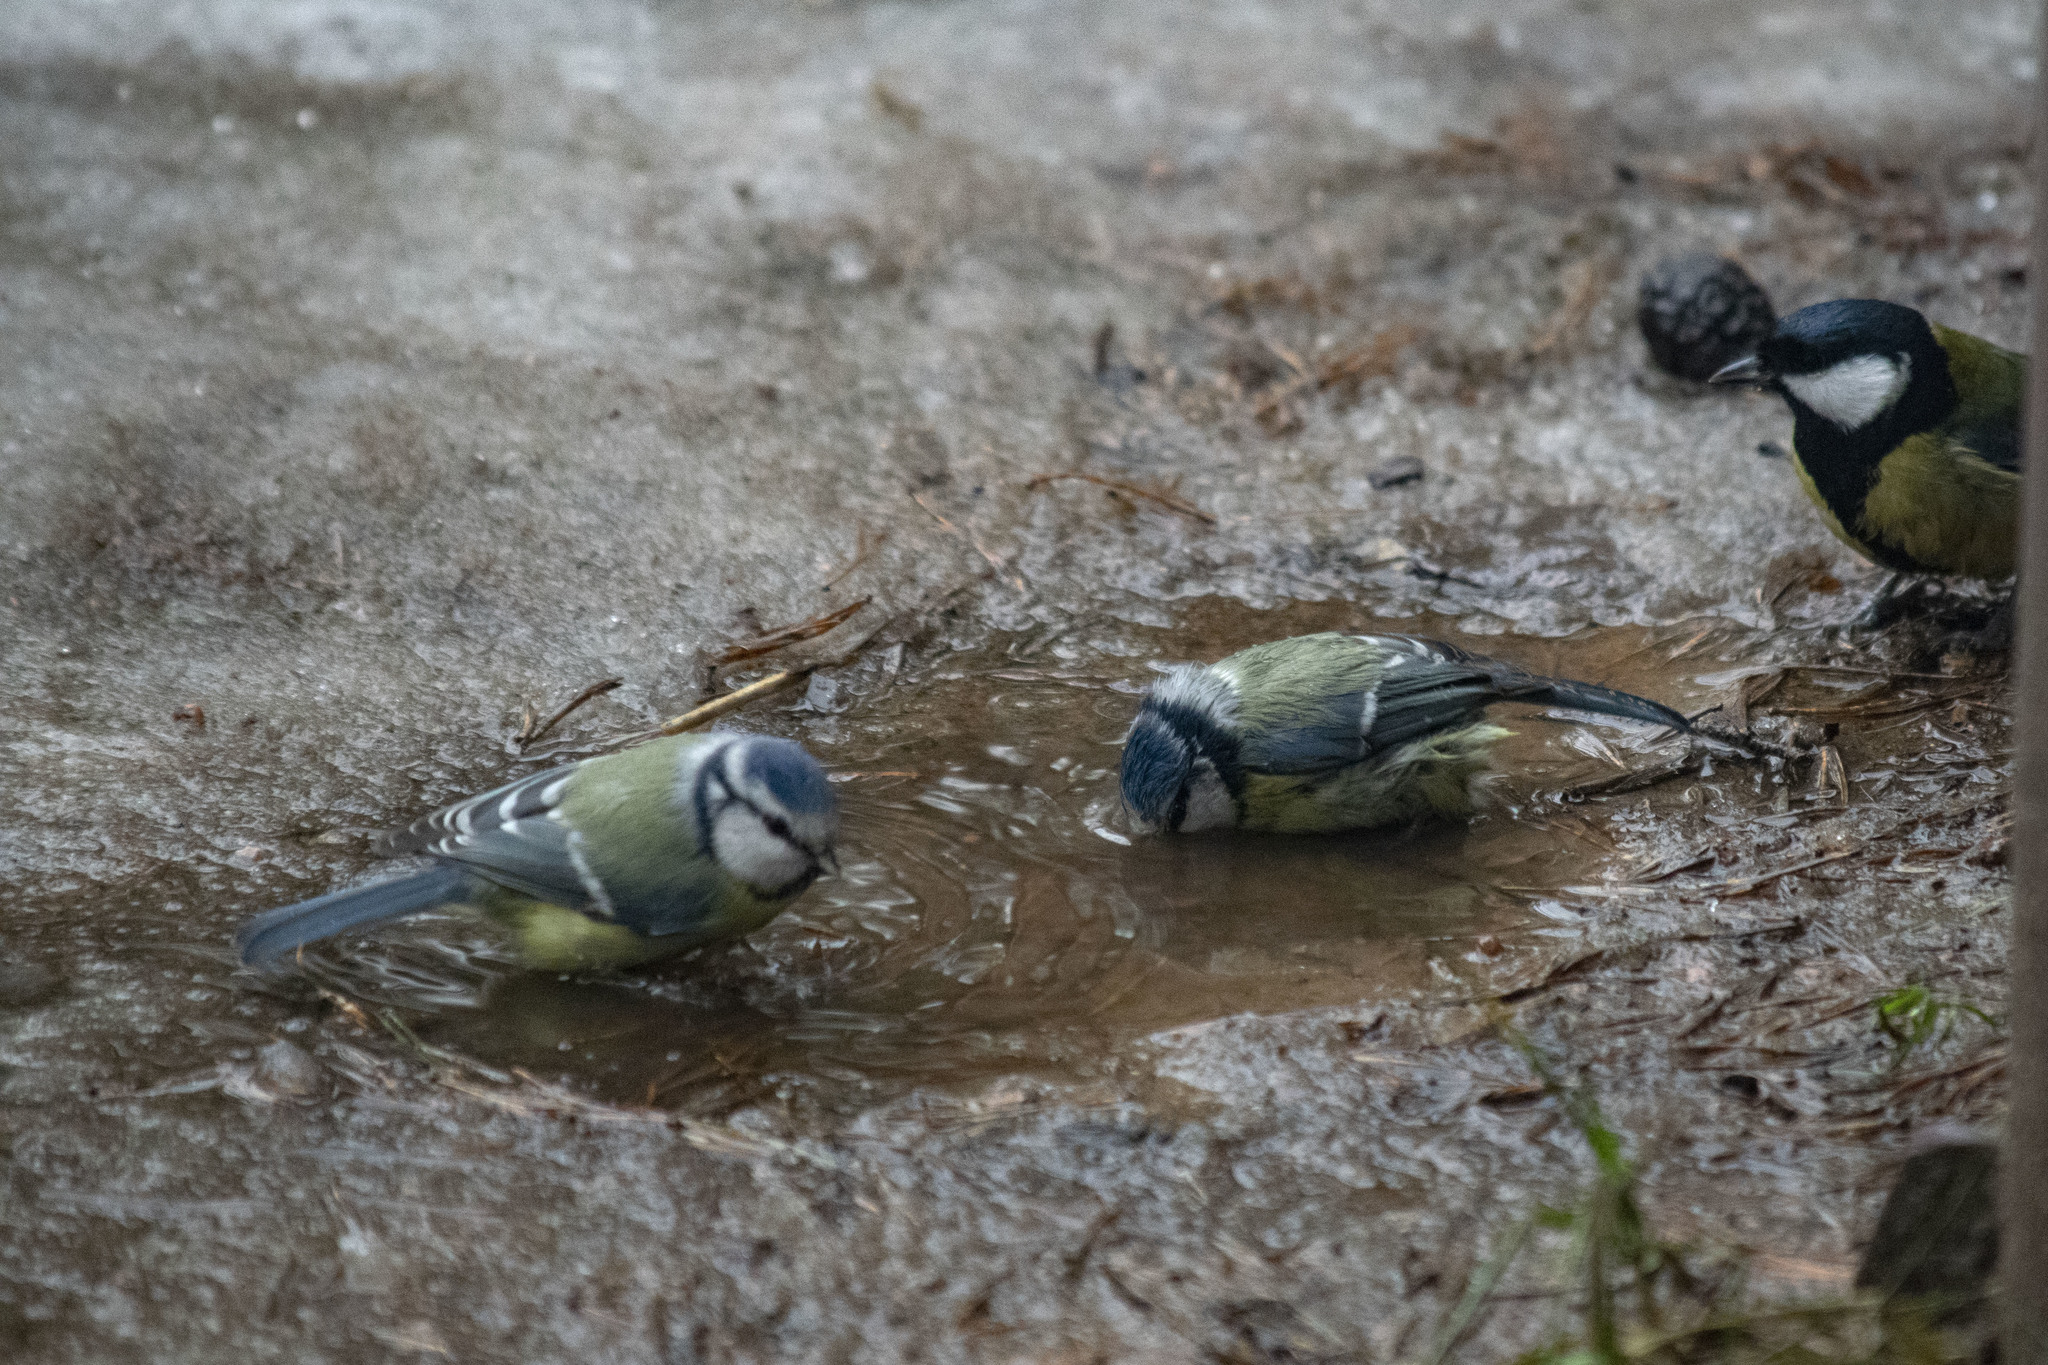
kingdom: Animalia
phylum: Chordata
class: Aves
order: Passeriformes
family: Paridae
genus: Cyanistes
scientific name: Cyanistes caeruleus
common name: Eurasian blue tit
